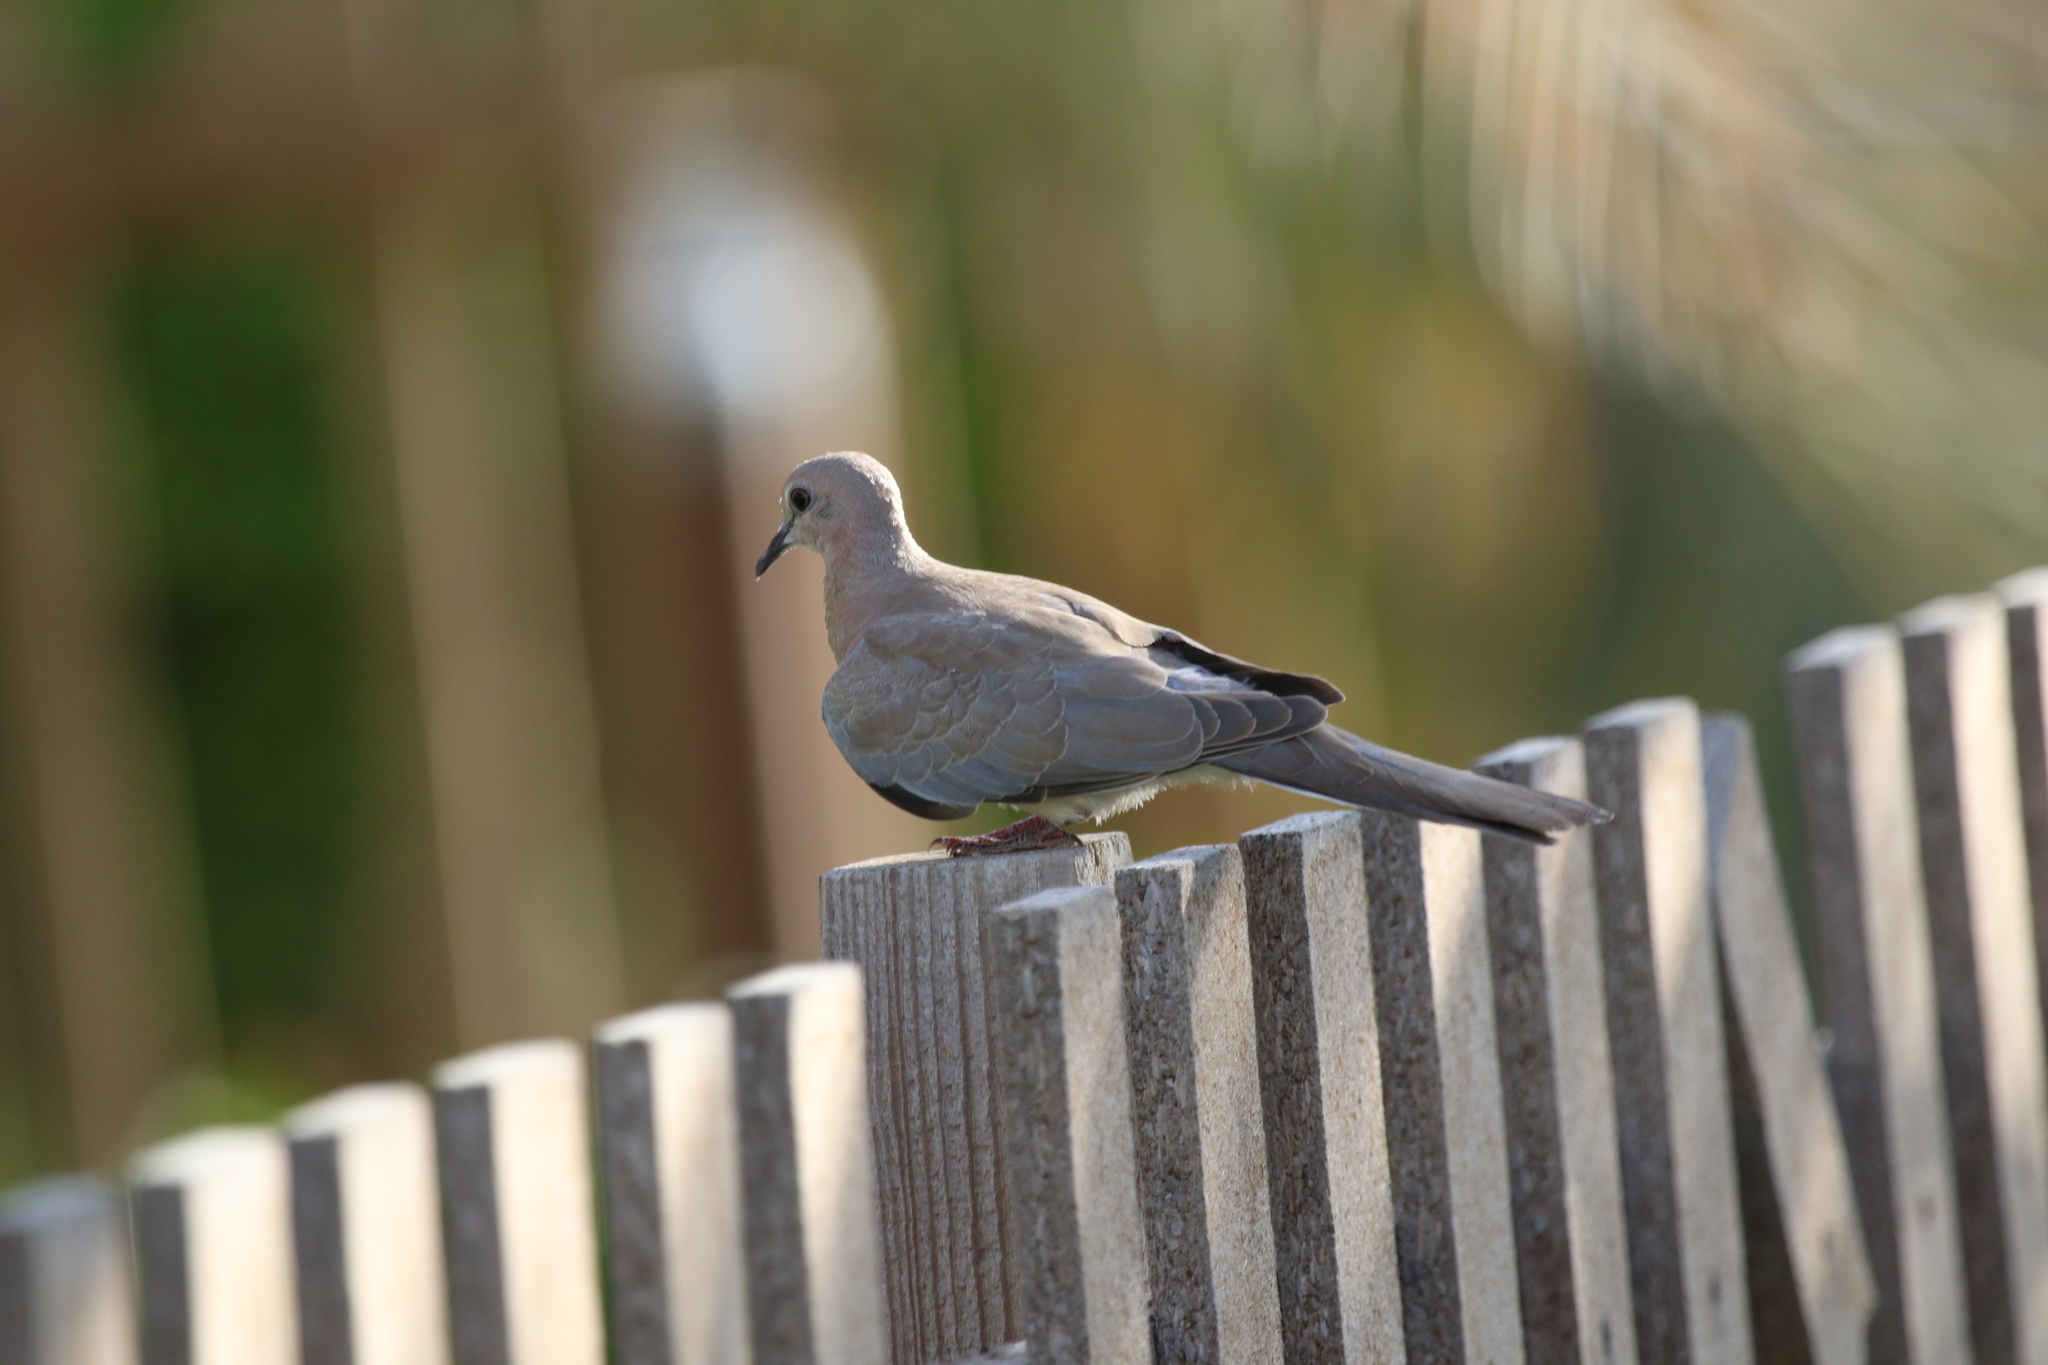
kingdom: Animalia
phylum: Chordata
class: Aves
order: Columbiformes
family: Columbidae
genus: Spilopelia
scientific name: Spilopelia senegalensis
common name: Laughing dove
